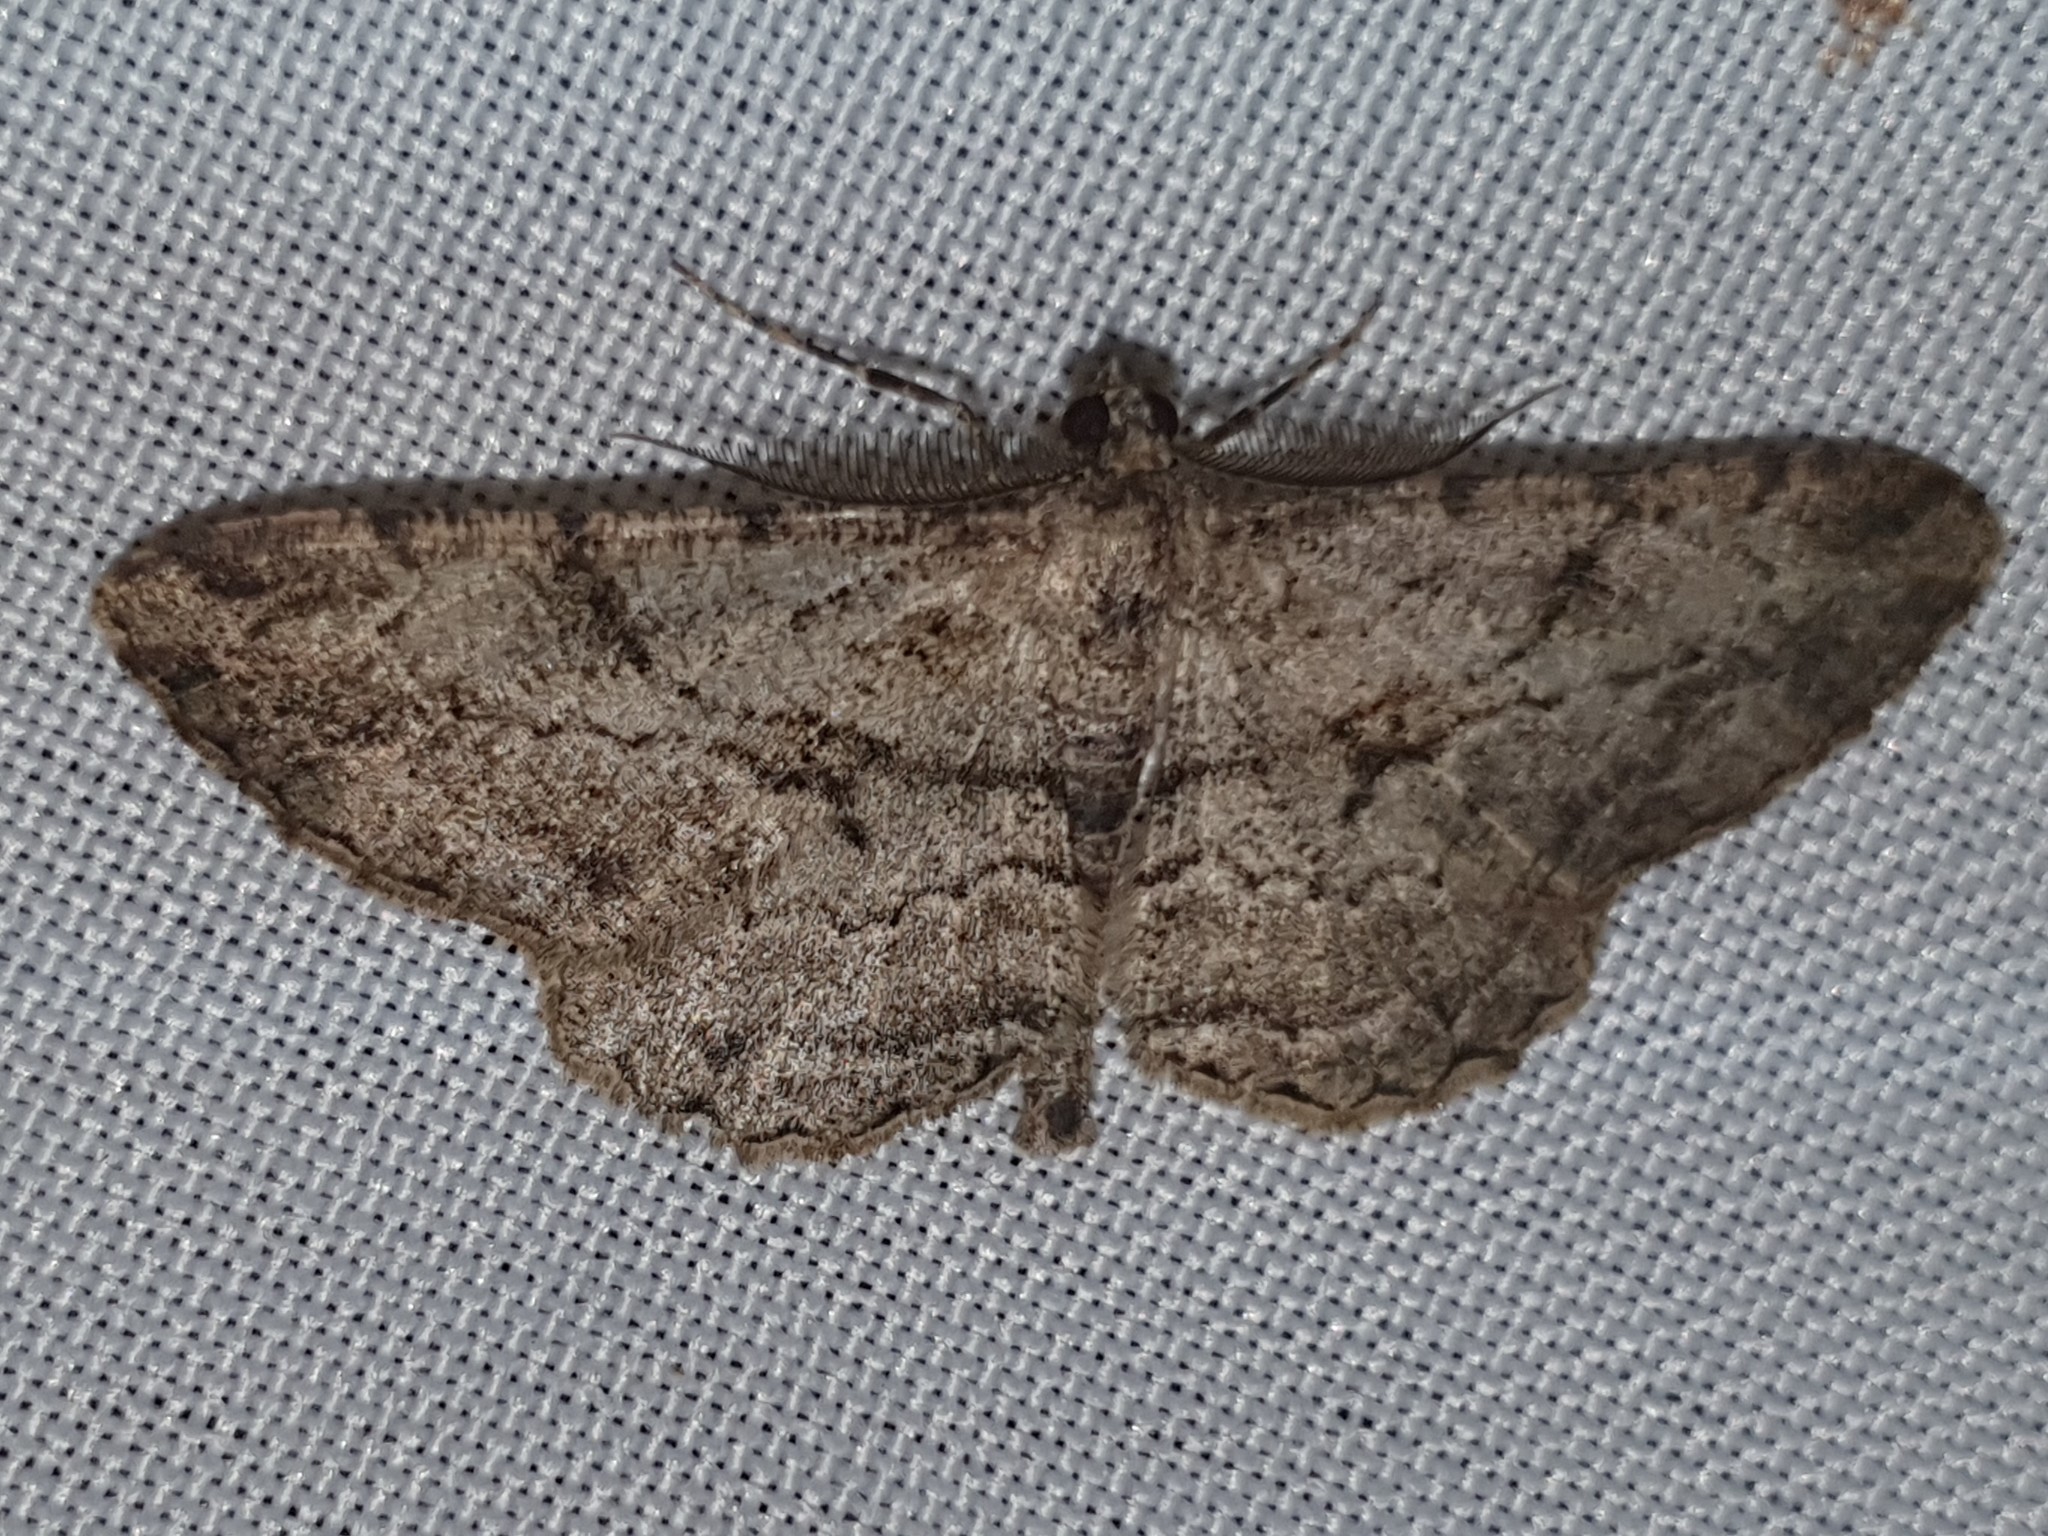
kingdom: Animalia
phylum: Arthropoda
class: Insecta
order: Lepidoptera
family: Geometridae
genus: Peribatodes
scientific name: Peribatodes rhomboidaria
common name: Willow beauty
